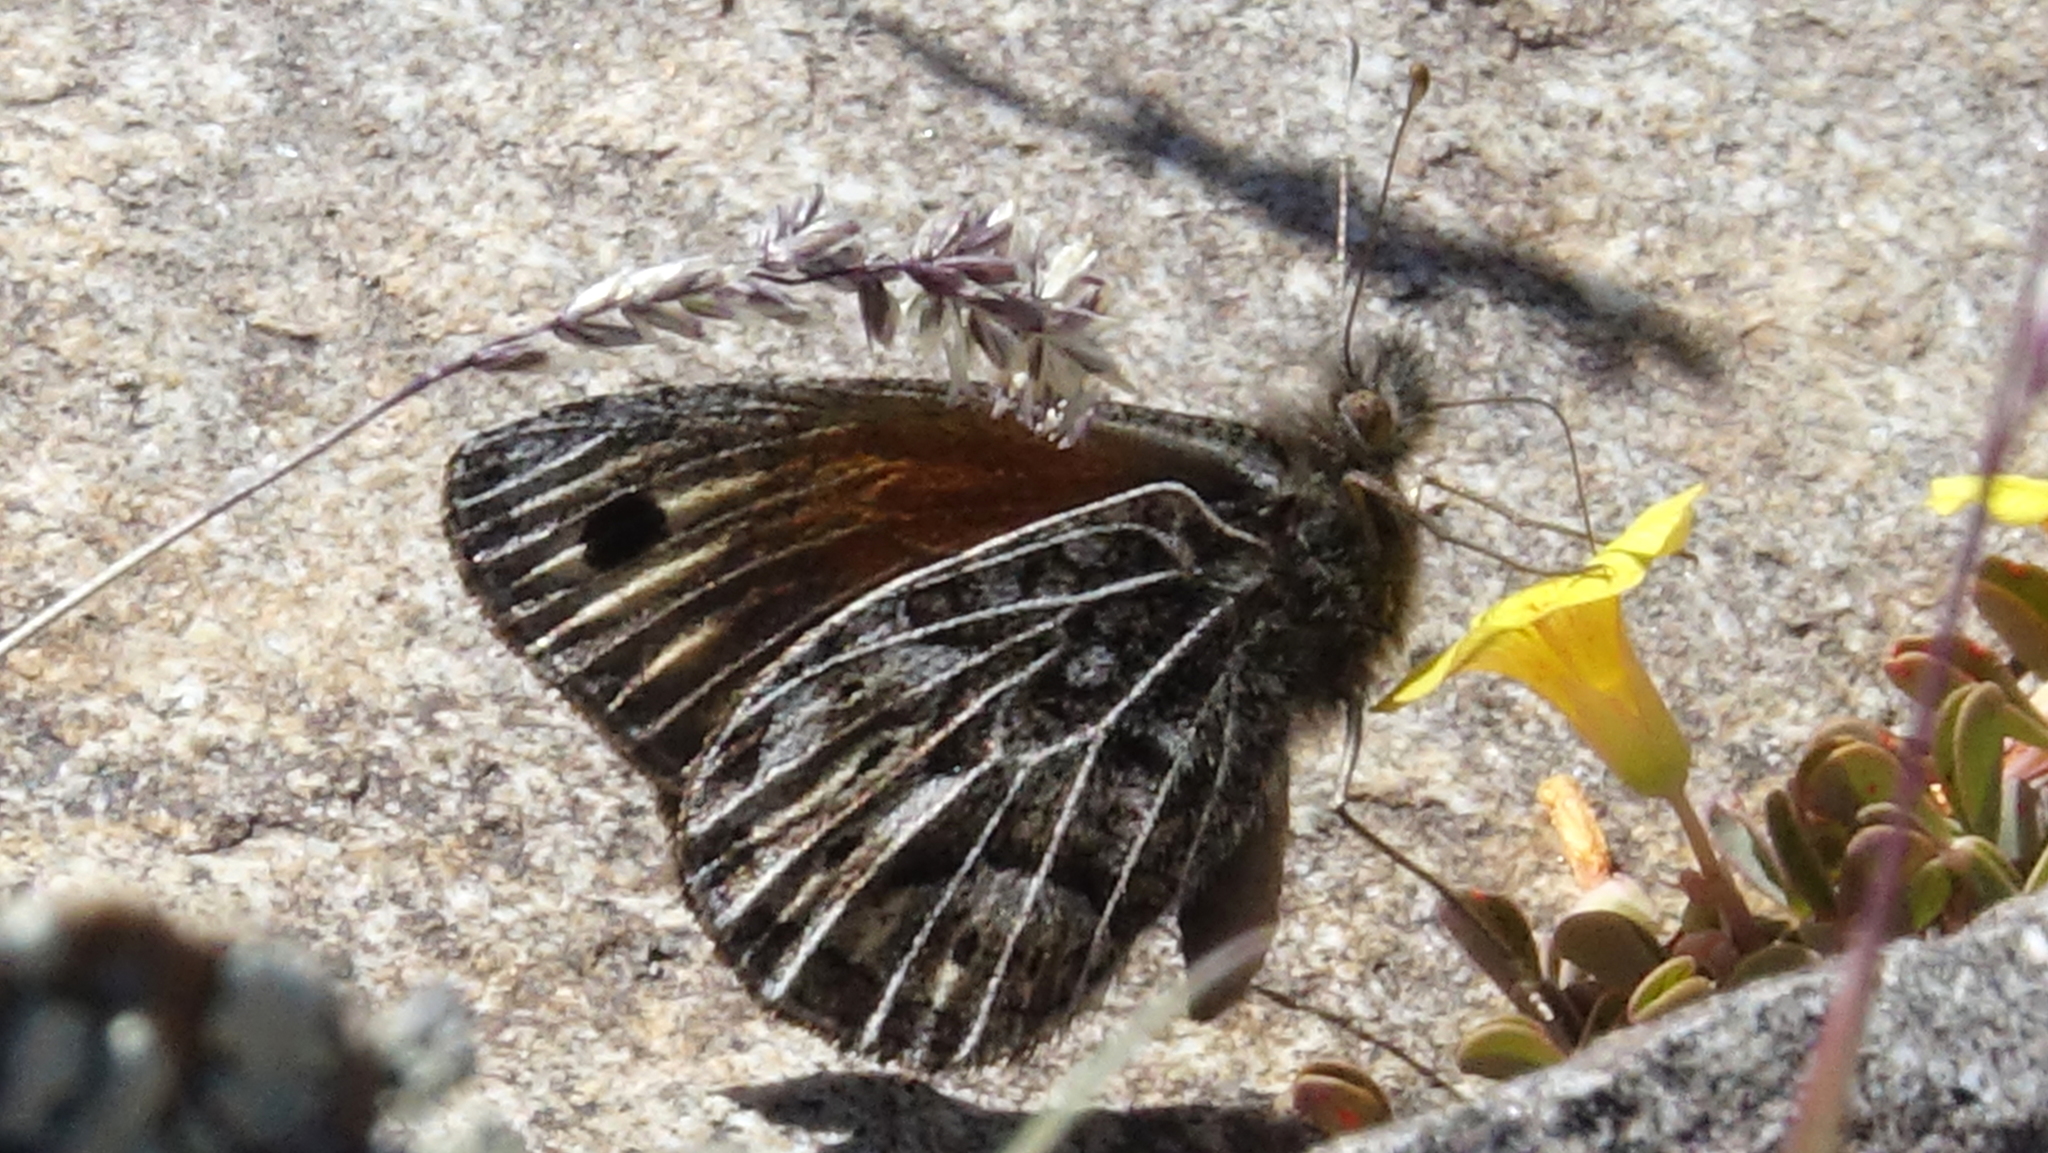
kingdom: Animalia
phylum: Arthropoda
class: Insecta
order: Lepidoptera
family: Nymphalidae
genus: Argyrophorus
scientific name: Argyrophorus
